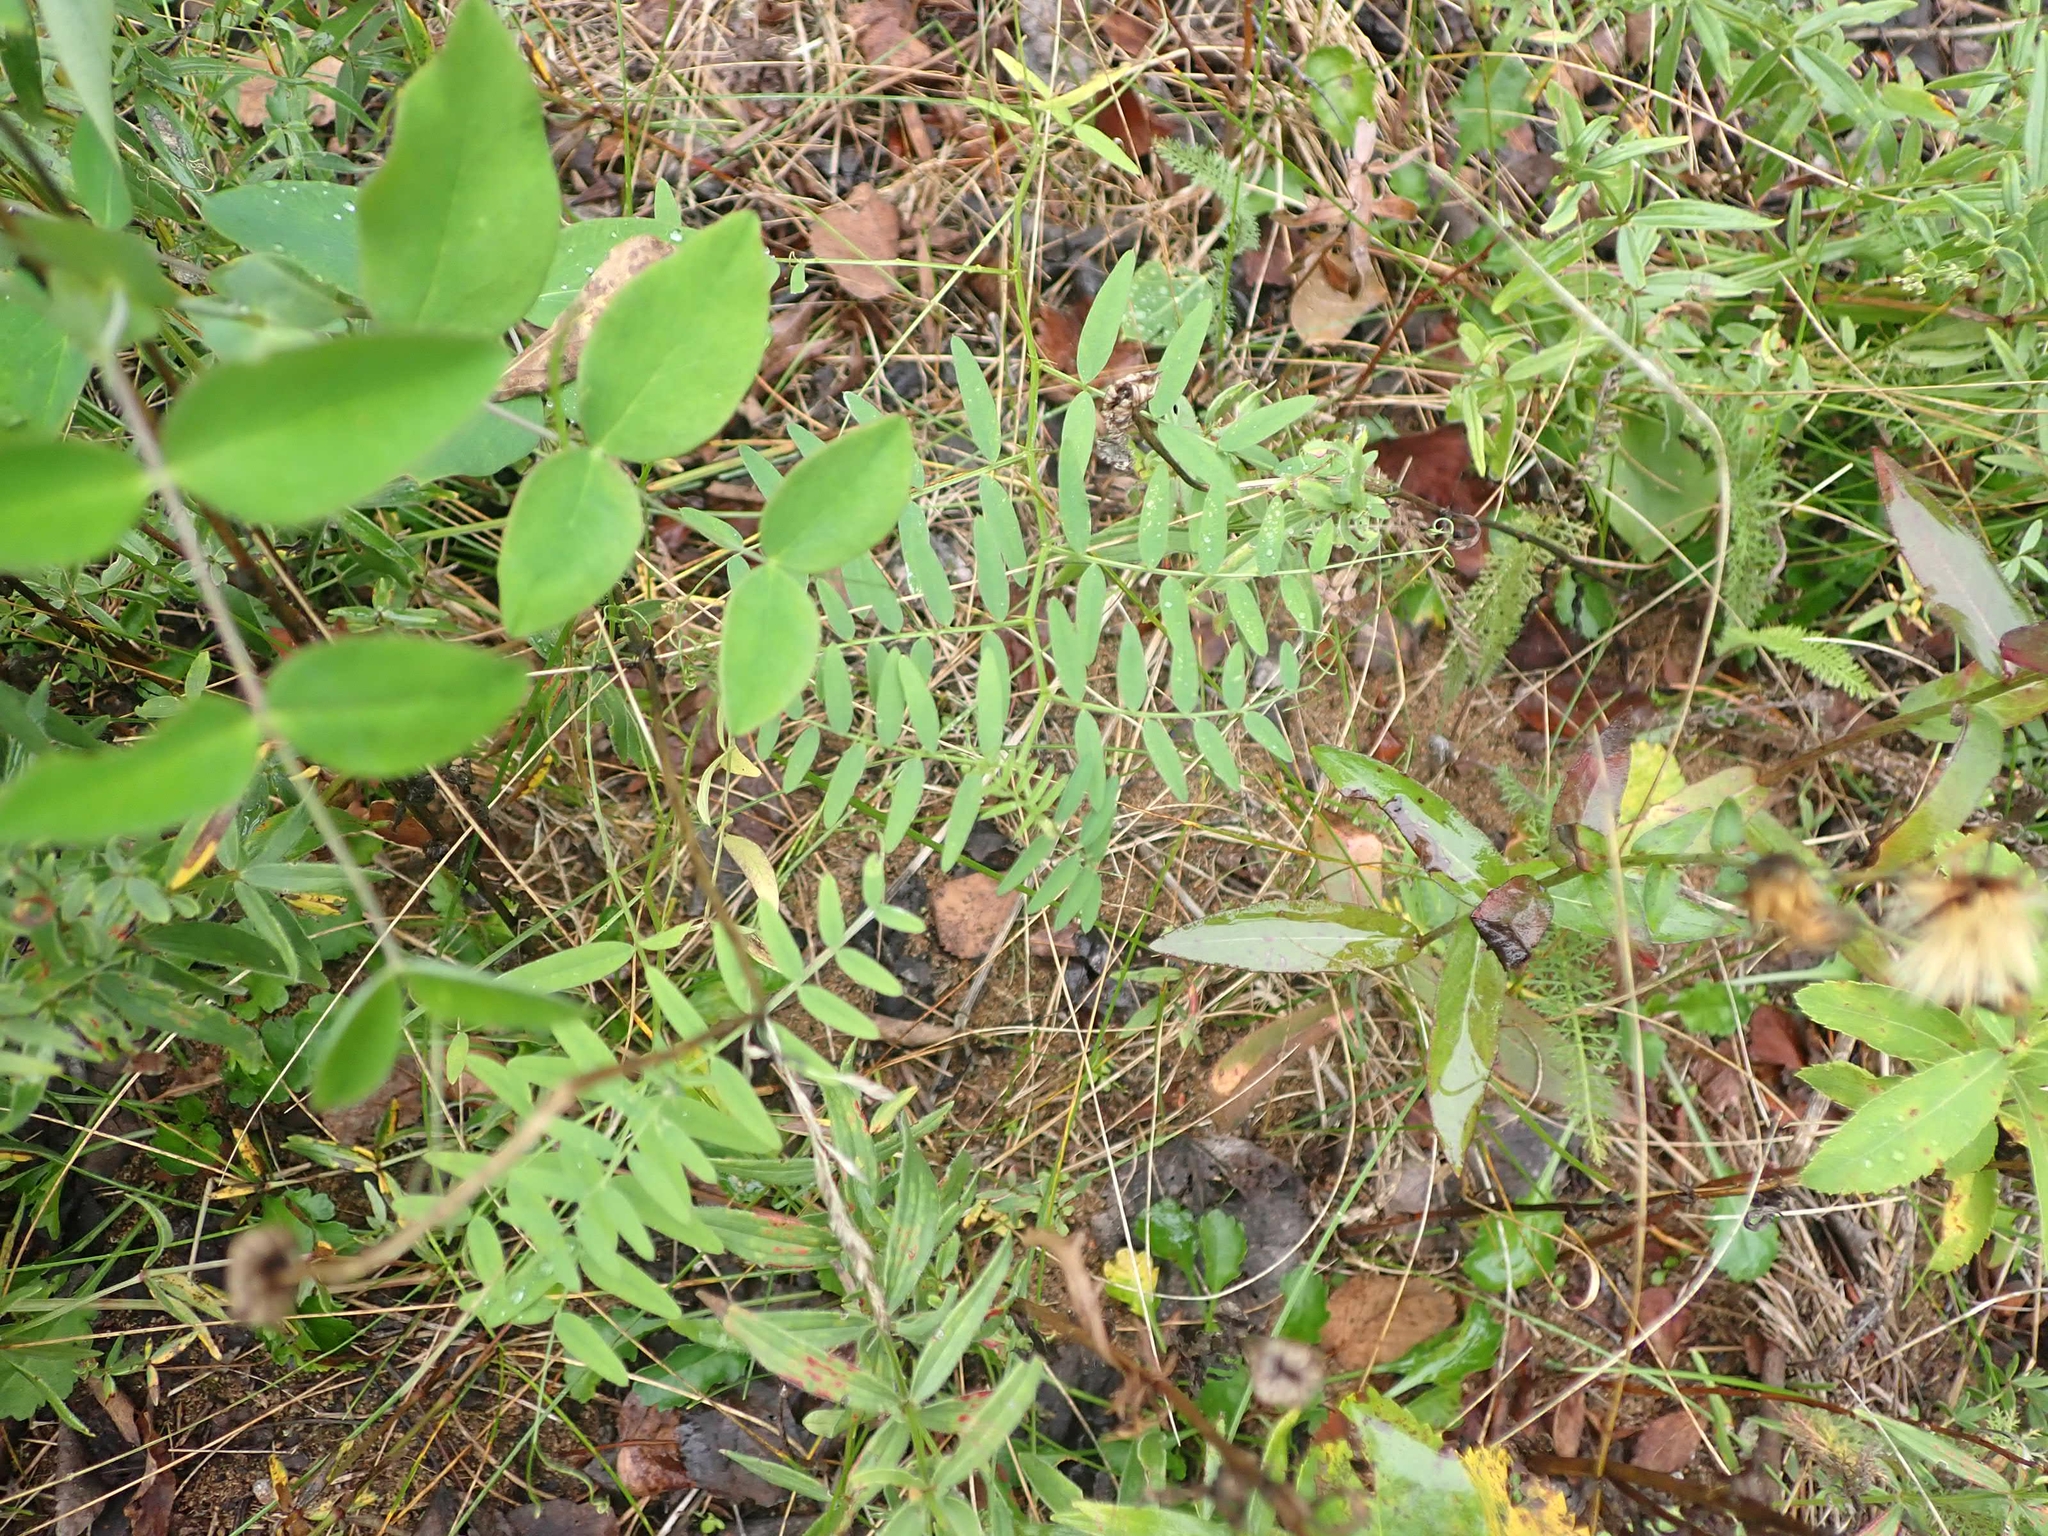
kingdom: Plantae
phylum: Tracheophyta
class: Magnoliopsida
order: Fabales
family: Fabaceae
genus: Vicia
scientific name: Vicia americana
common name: American vetch
